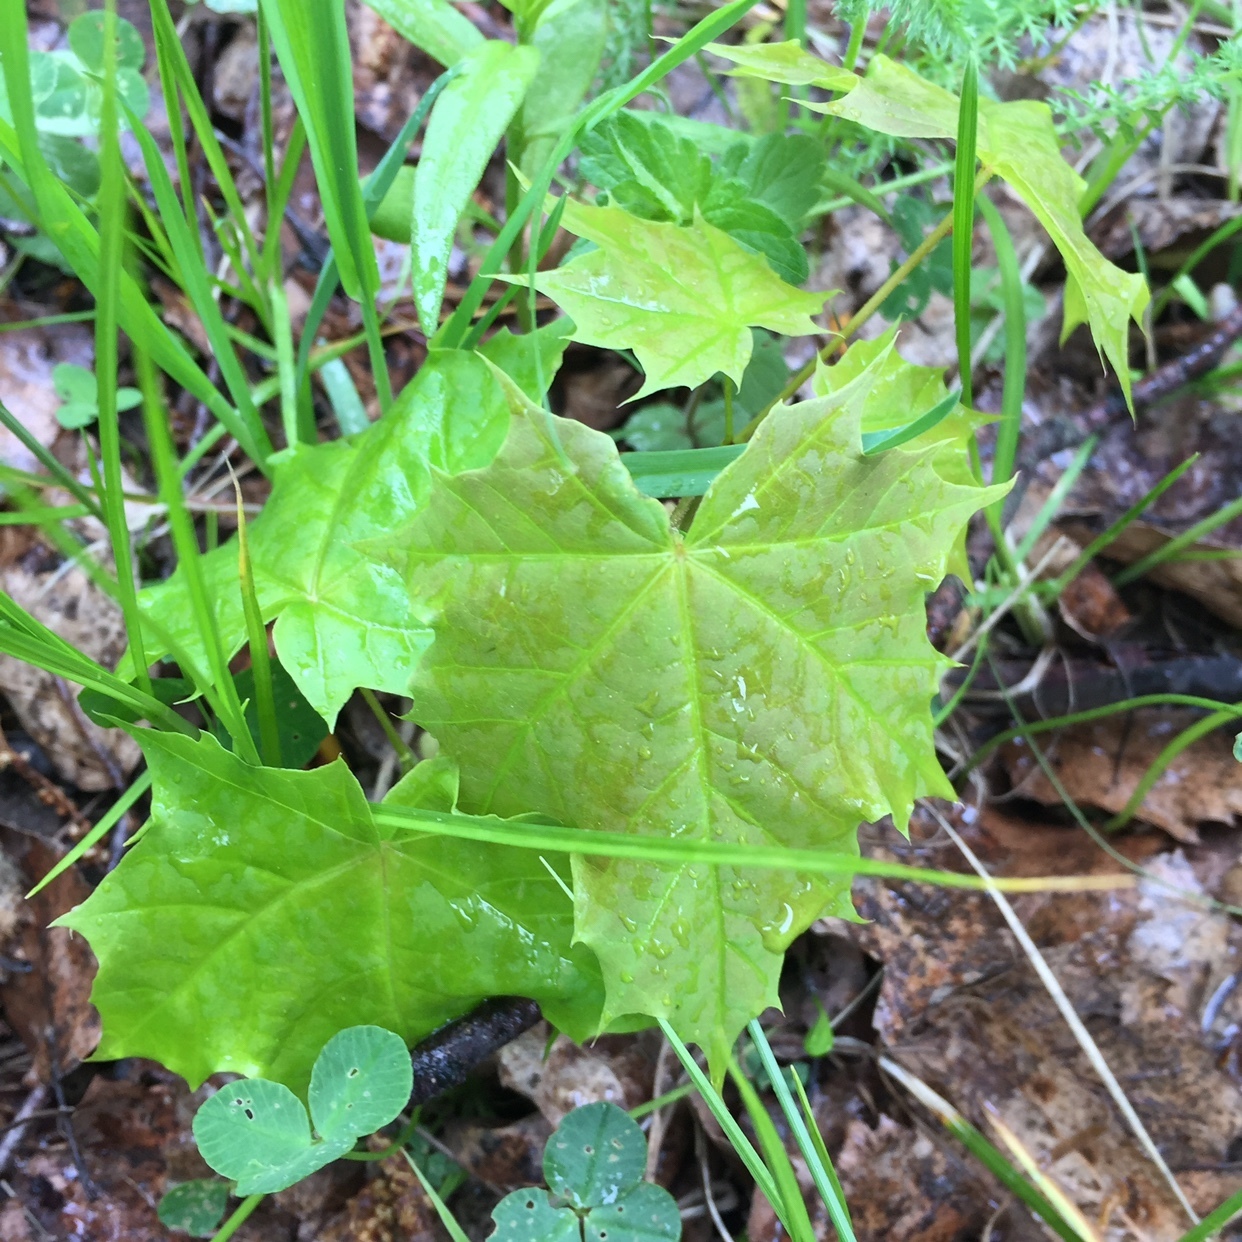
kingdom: Plantae
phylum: Tracheophyta
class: Magnoliopsida
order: Sapindales
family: Sapindaceae
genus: Acer
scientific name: Acer platanoides
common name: Norway maple
